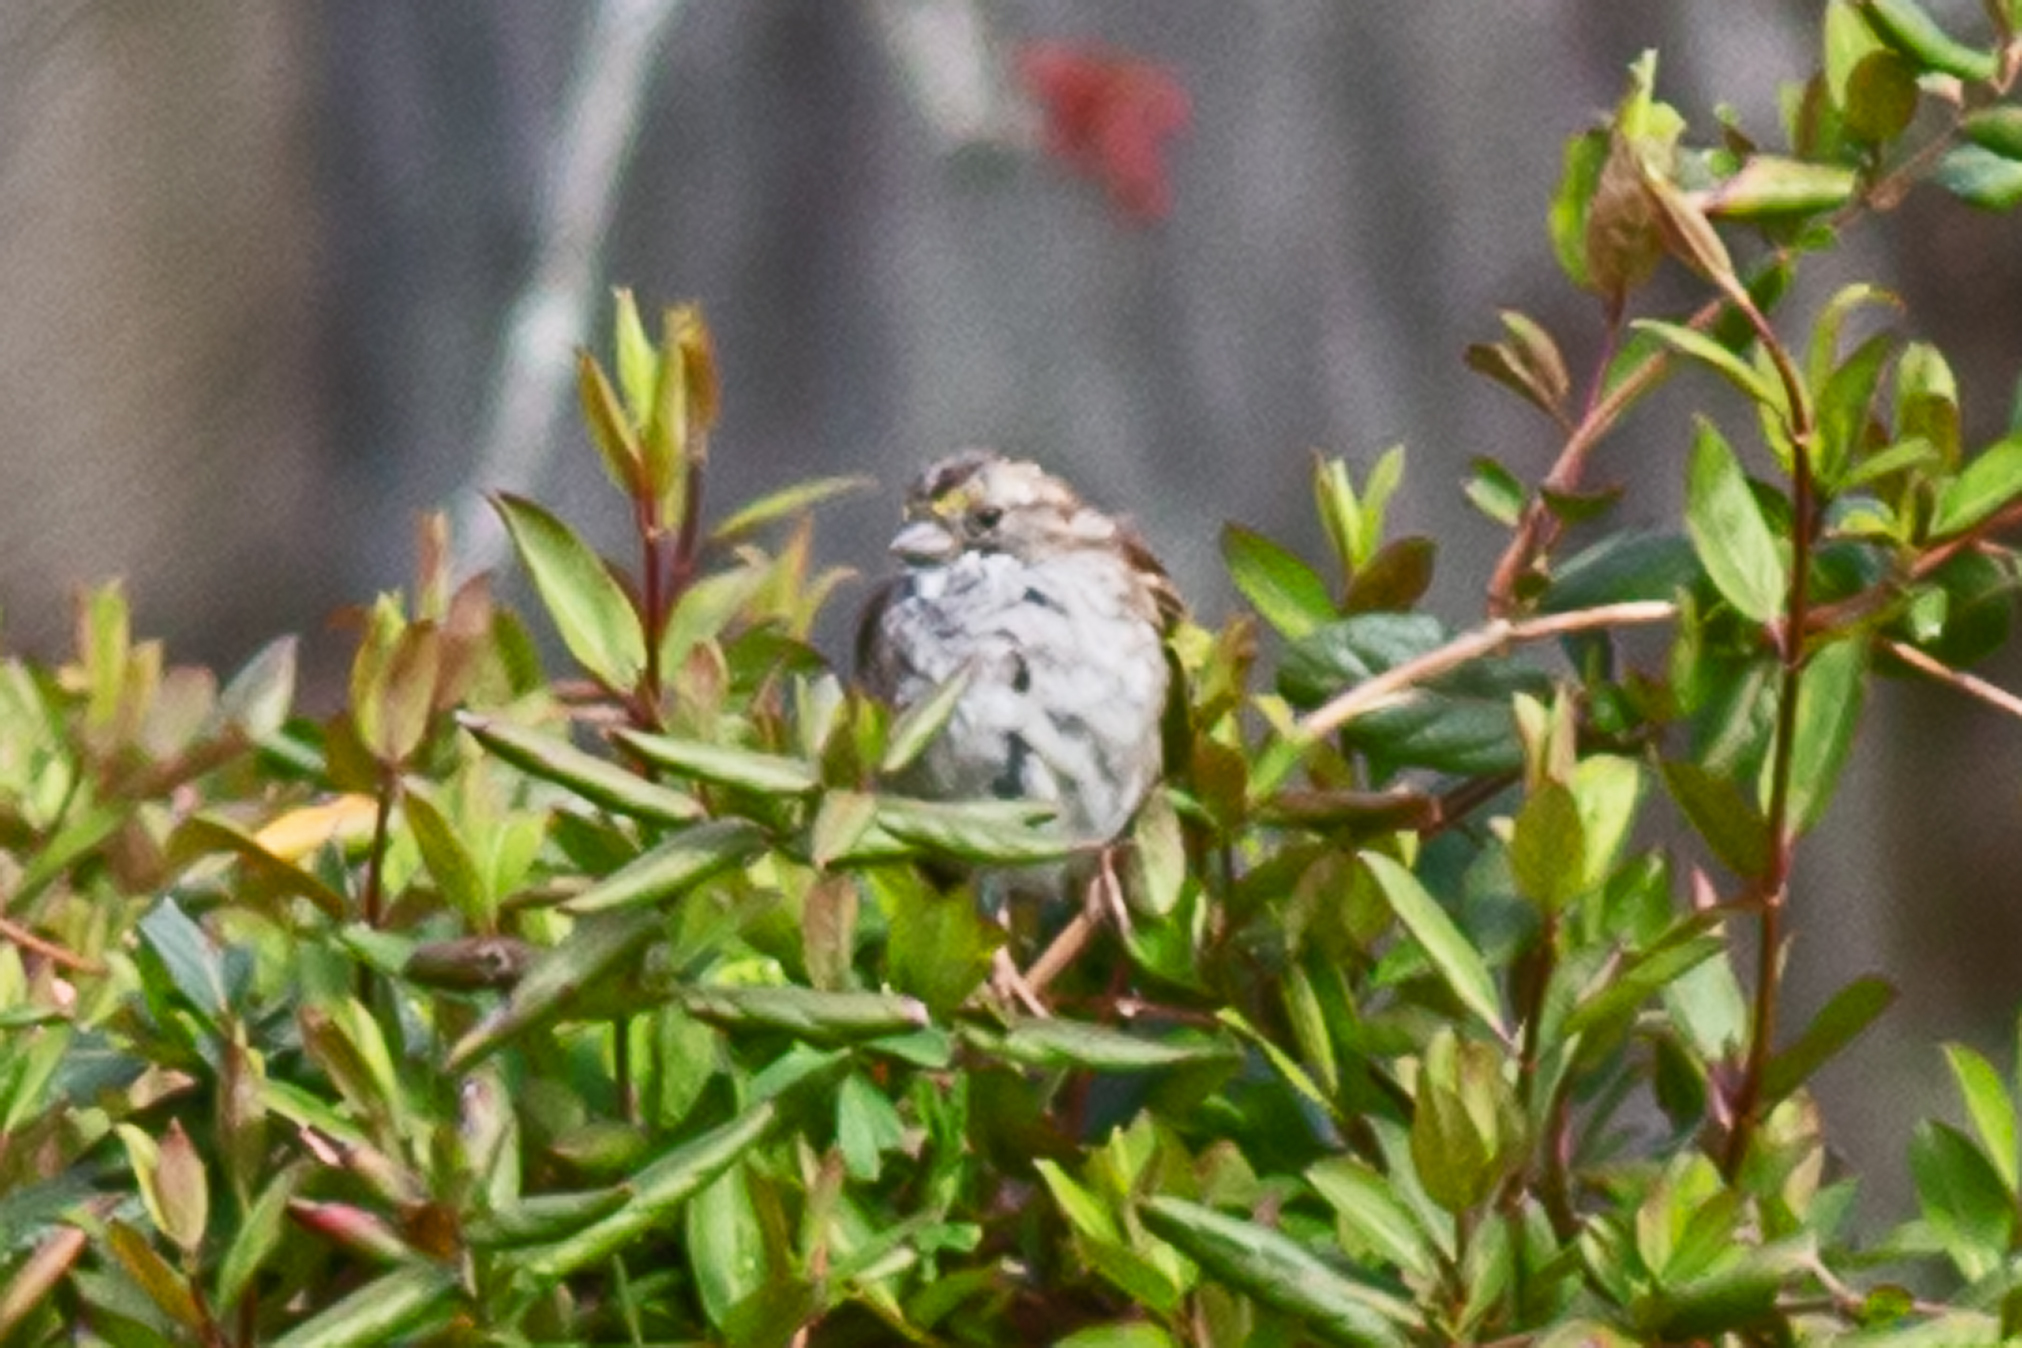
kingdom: Animalia
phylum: Chordata
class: Aves
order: Passeriformes
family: Passerellidae
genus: Zonotrichia
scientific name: Zonotrichia albicollis
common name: White-throated sparrow
